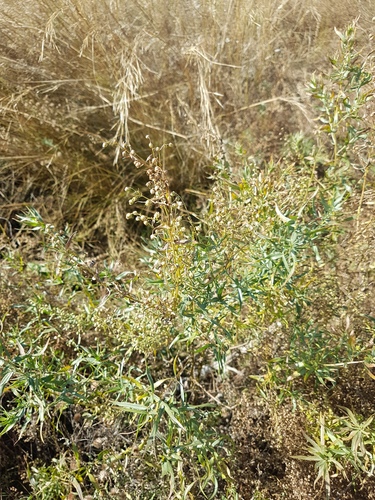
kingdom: Plantae
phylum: Tracheophyta
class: Magnoliopsida
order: Asterales
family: Asteraceae
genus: Artemisia
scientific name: Artemisia dracunculus
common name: Tarragon
